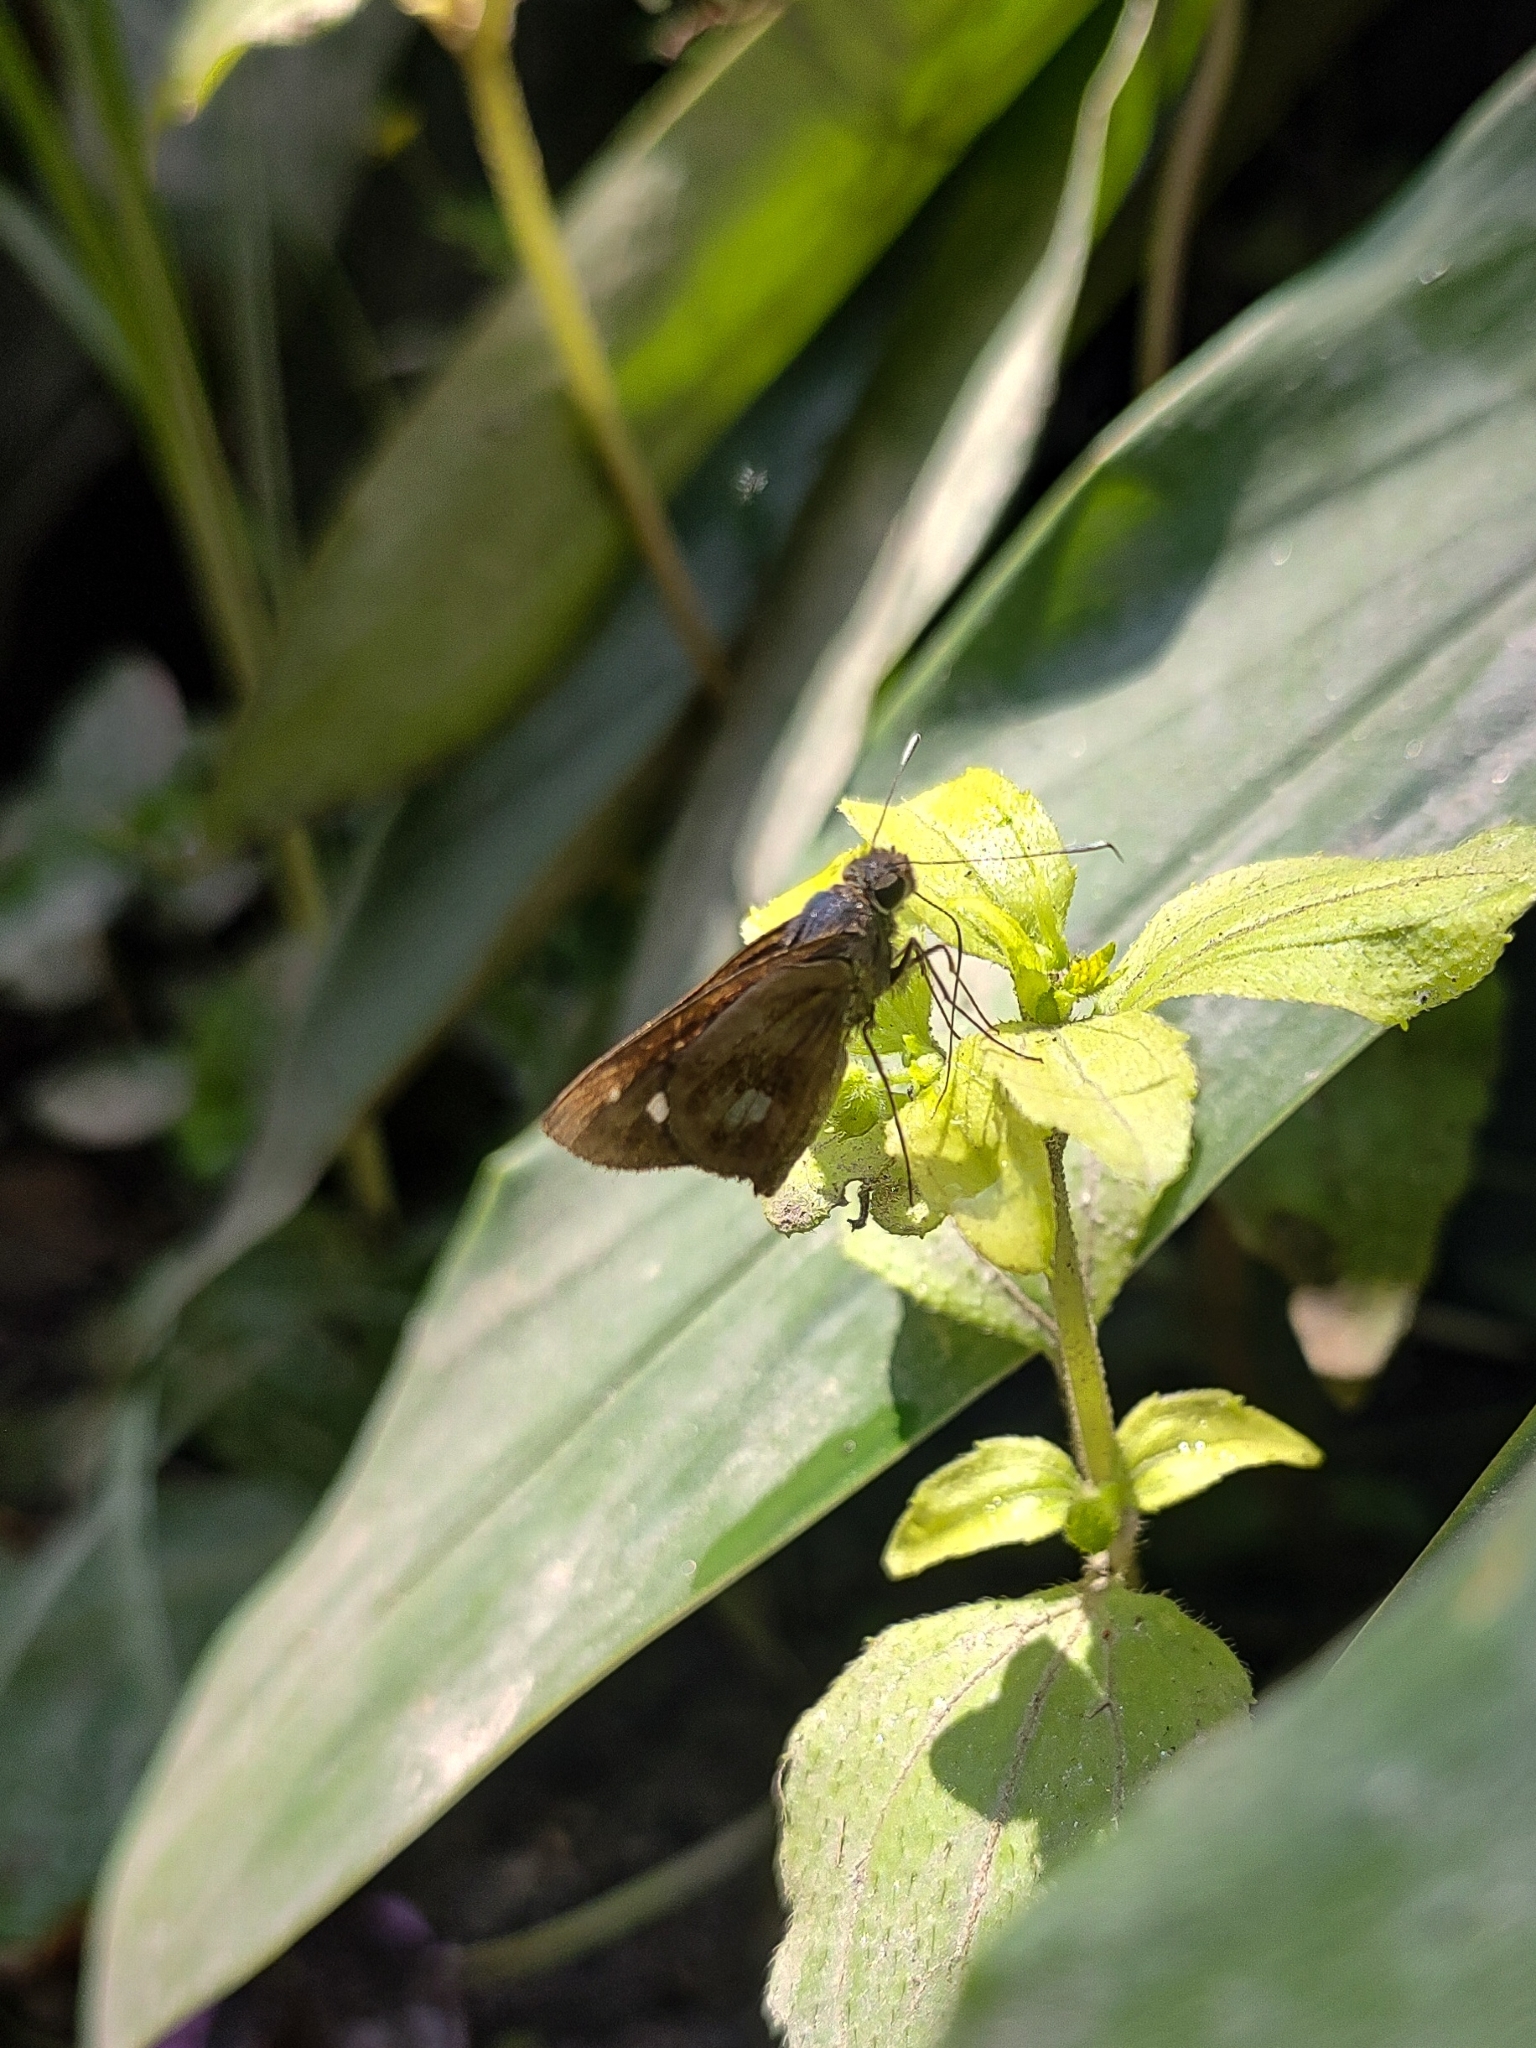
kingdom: Animalia
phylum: Arthropoda
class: Insecta
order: Lepidoptera
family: Hesperiidae
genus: Justinia
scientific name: Justinia kora
